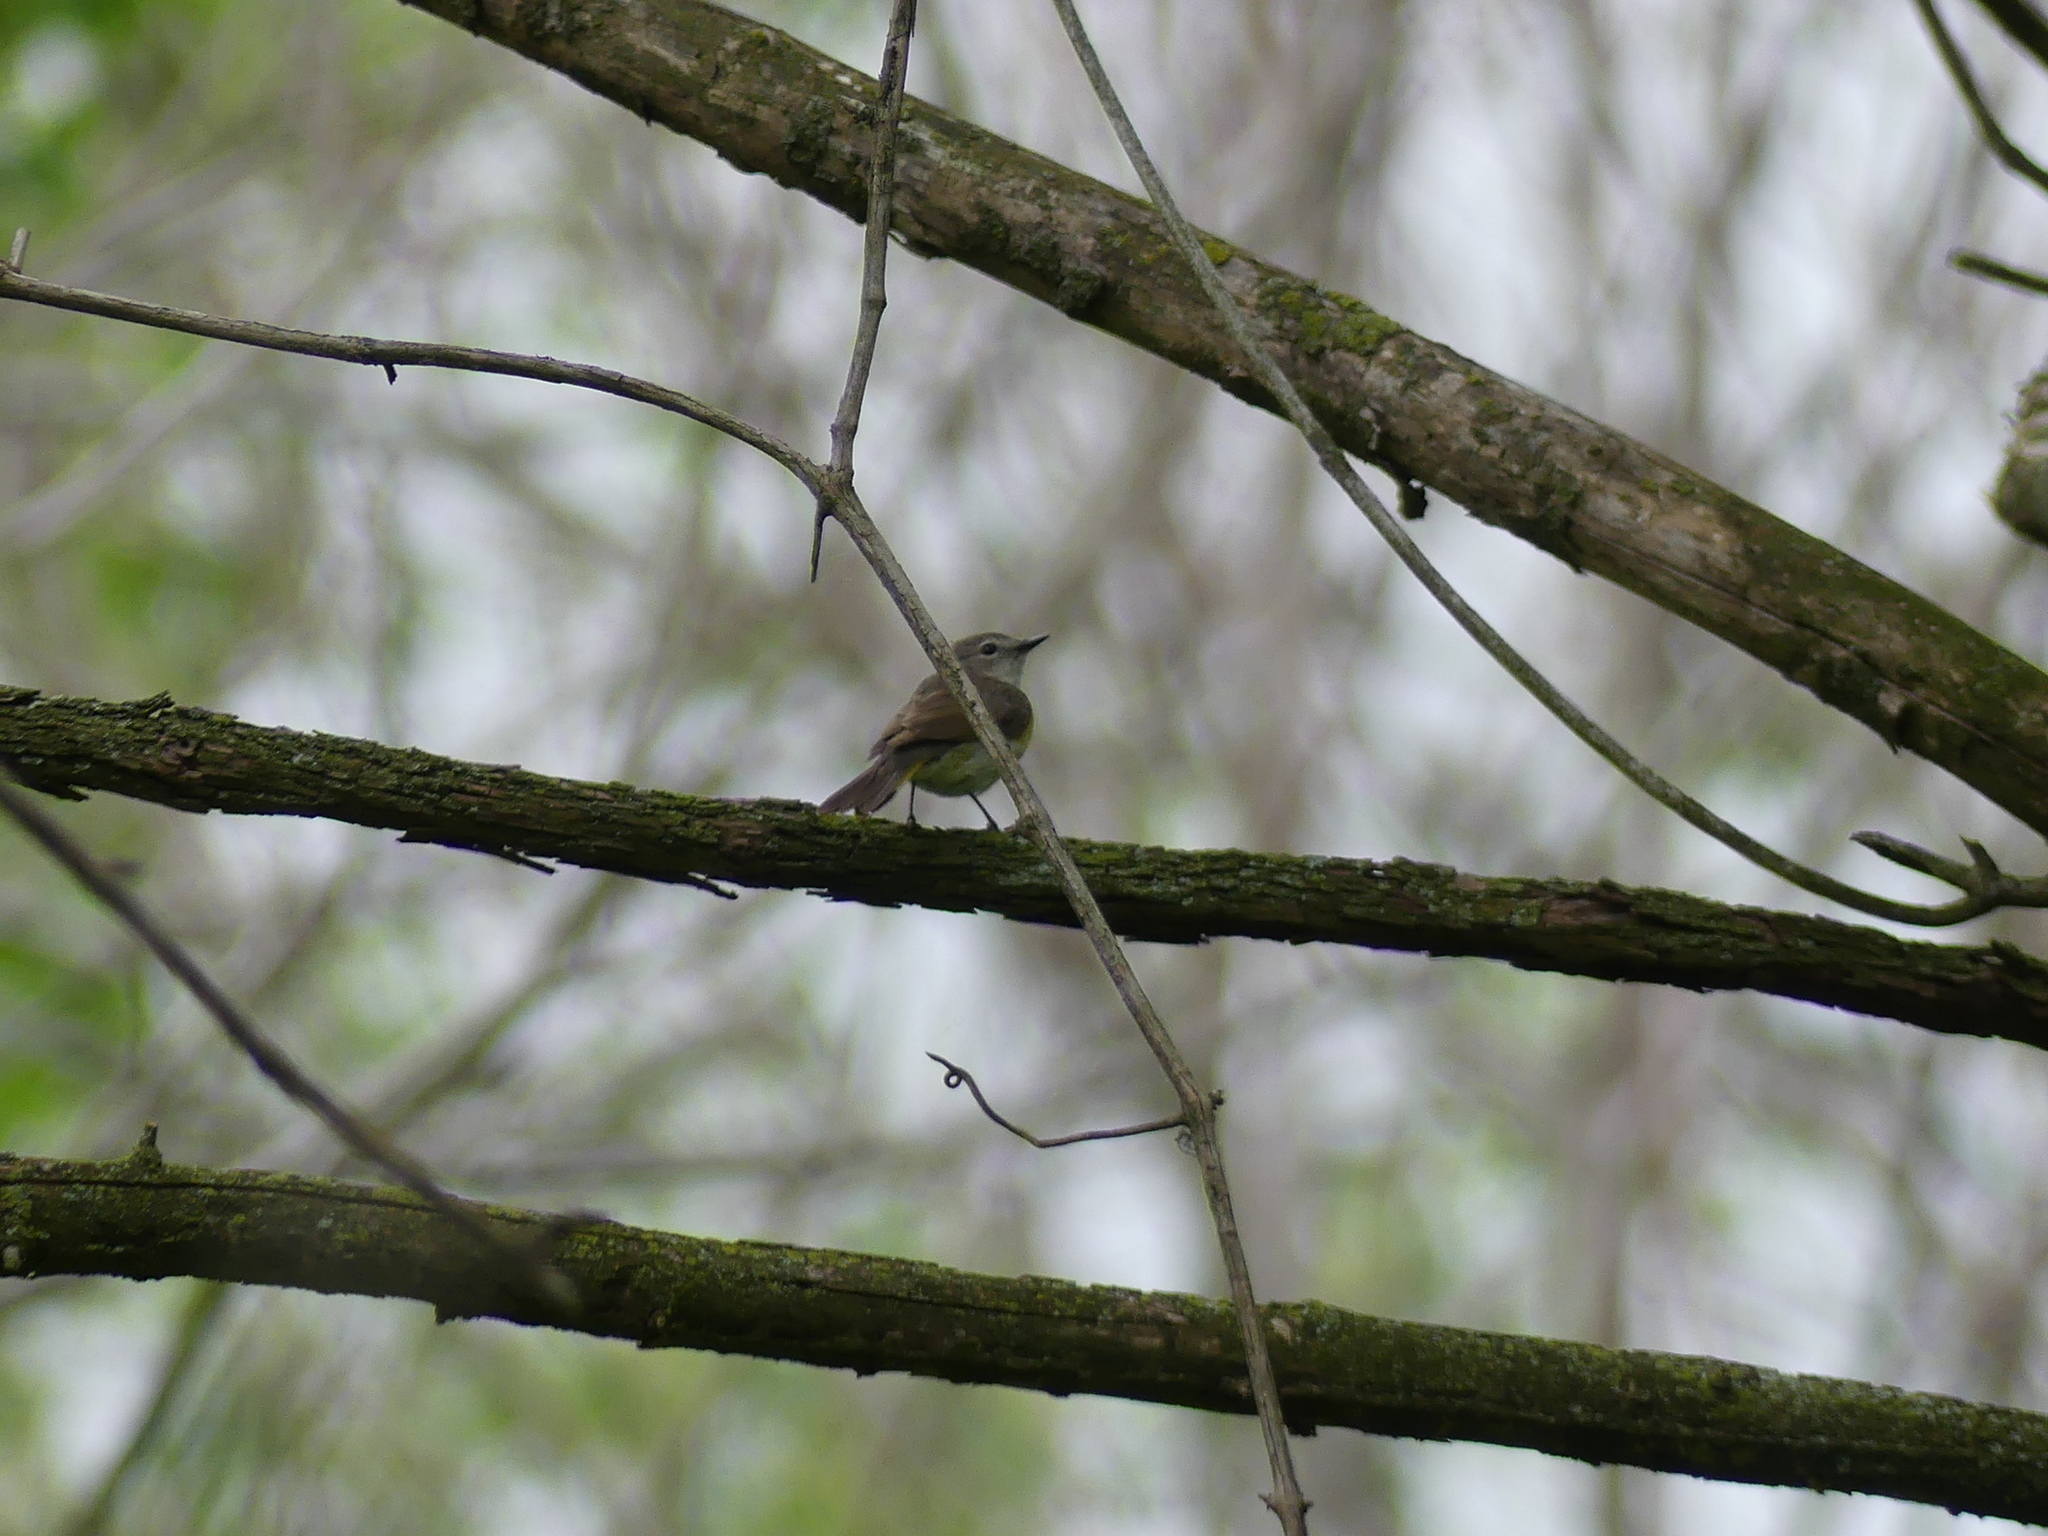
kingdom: Animalia
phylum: Chordata
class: Aves
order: Passeriformes
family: Parulidae
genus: Setophaga
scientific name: Setophaga ruticilla
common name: American redstart
